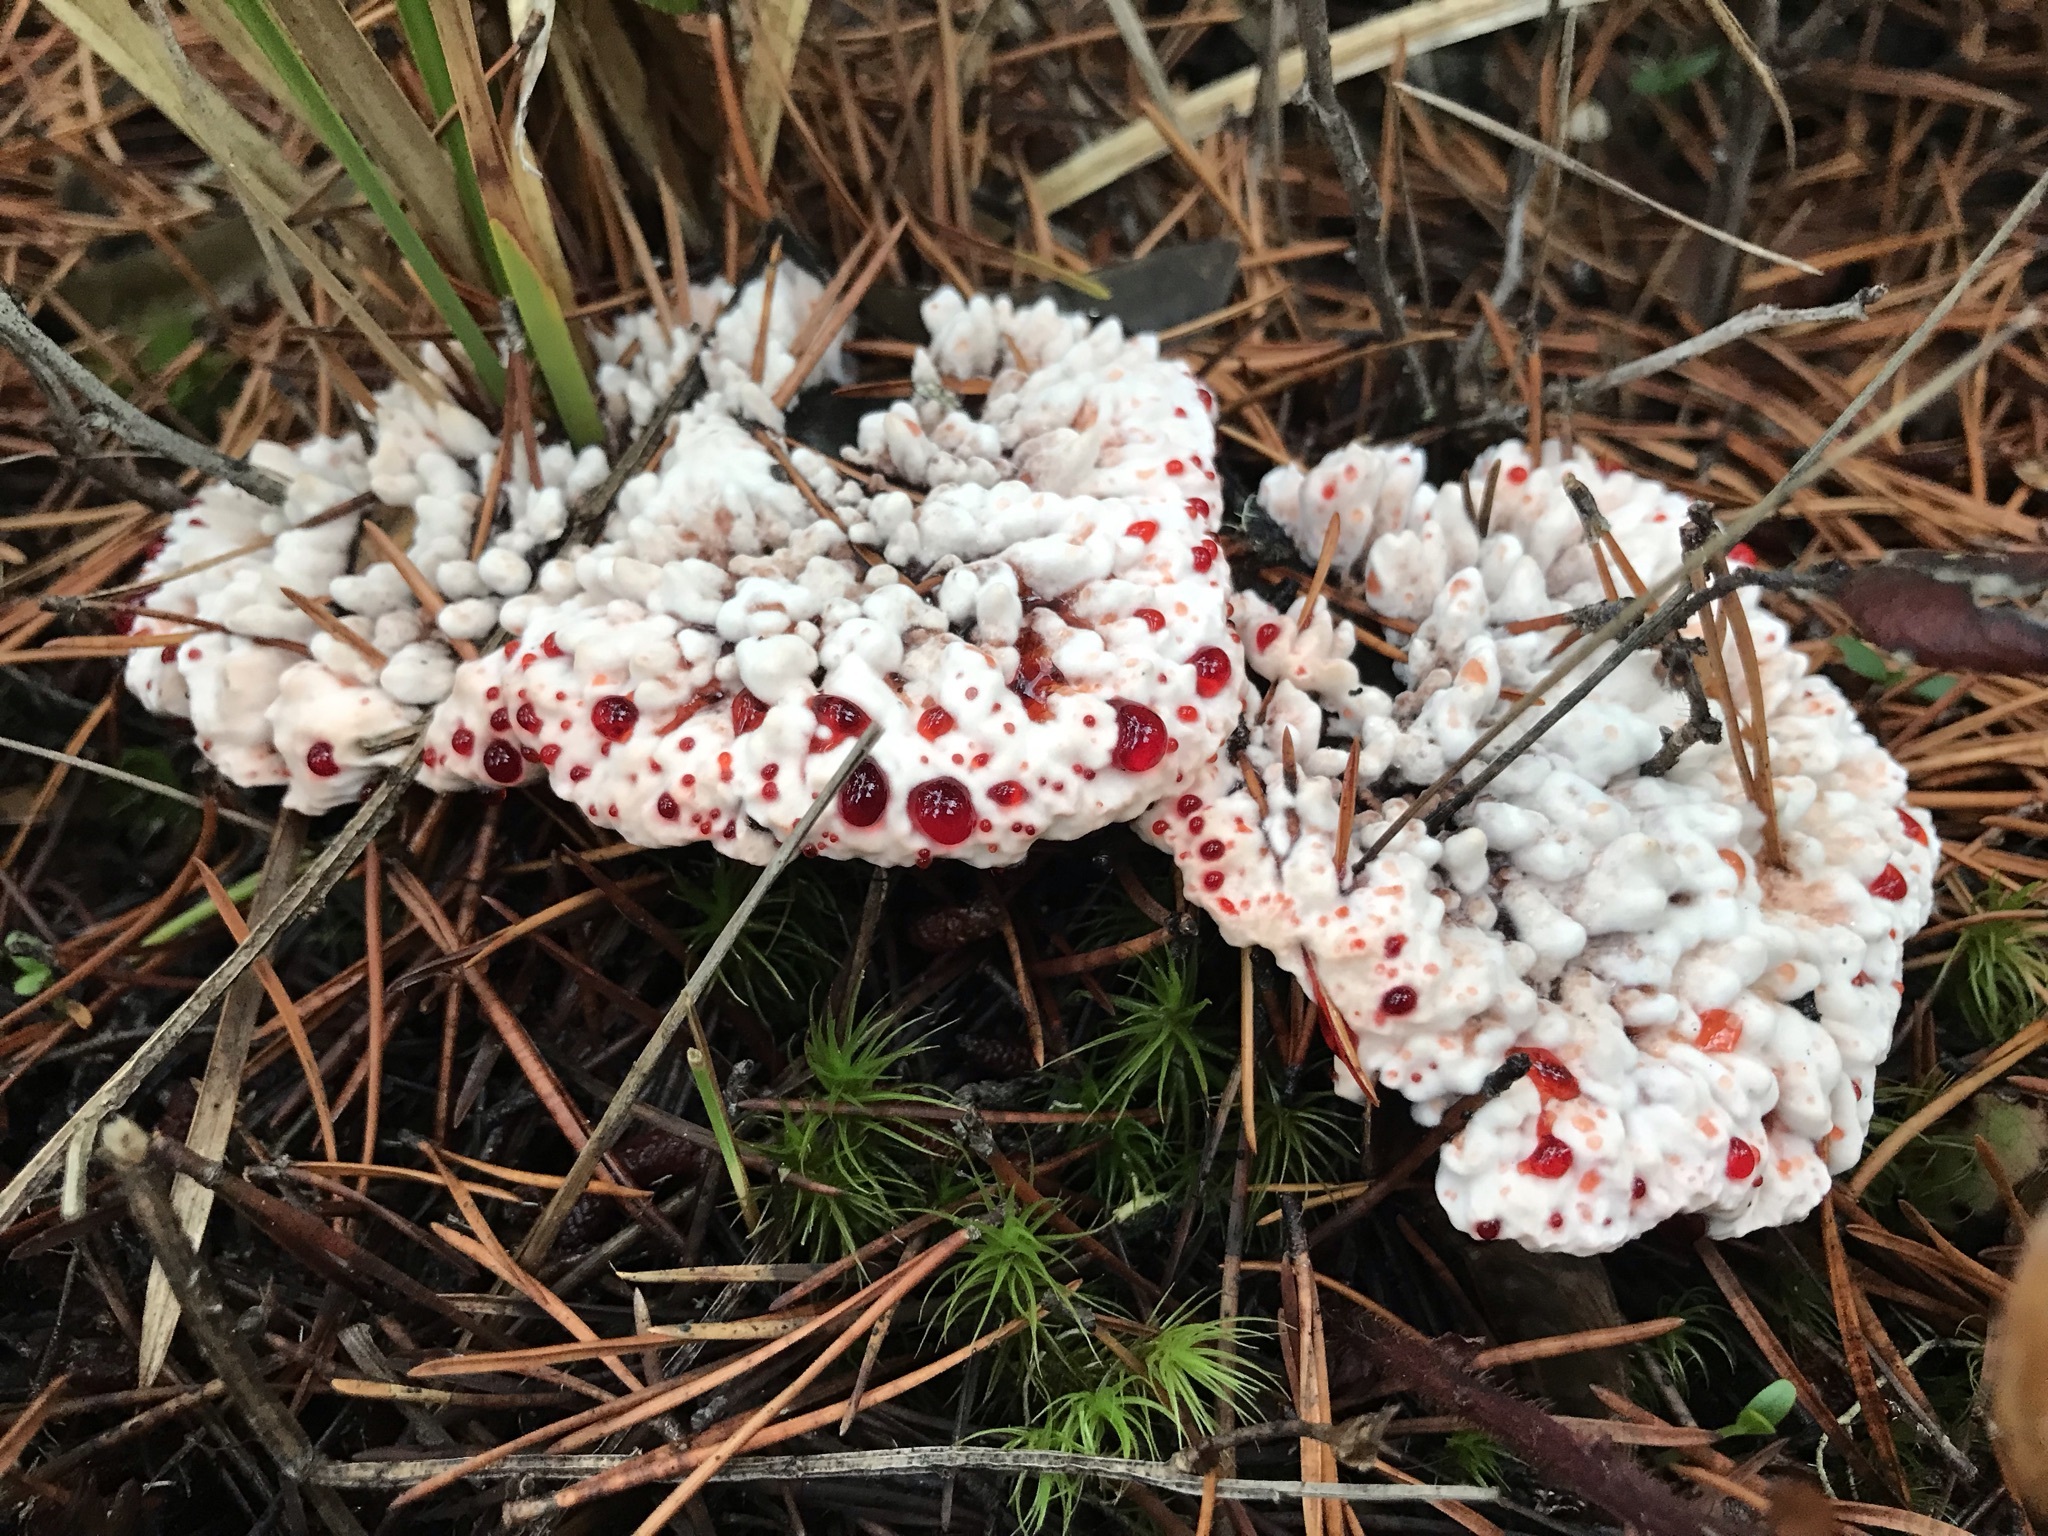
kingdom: Fungi
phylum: Basidiomycota
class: Agaricomycetes
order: Thelephorales
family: Bankeraceae
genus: Hydnellum
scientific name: Hydnellum peckii
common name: Devil's tooth
